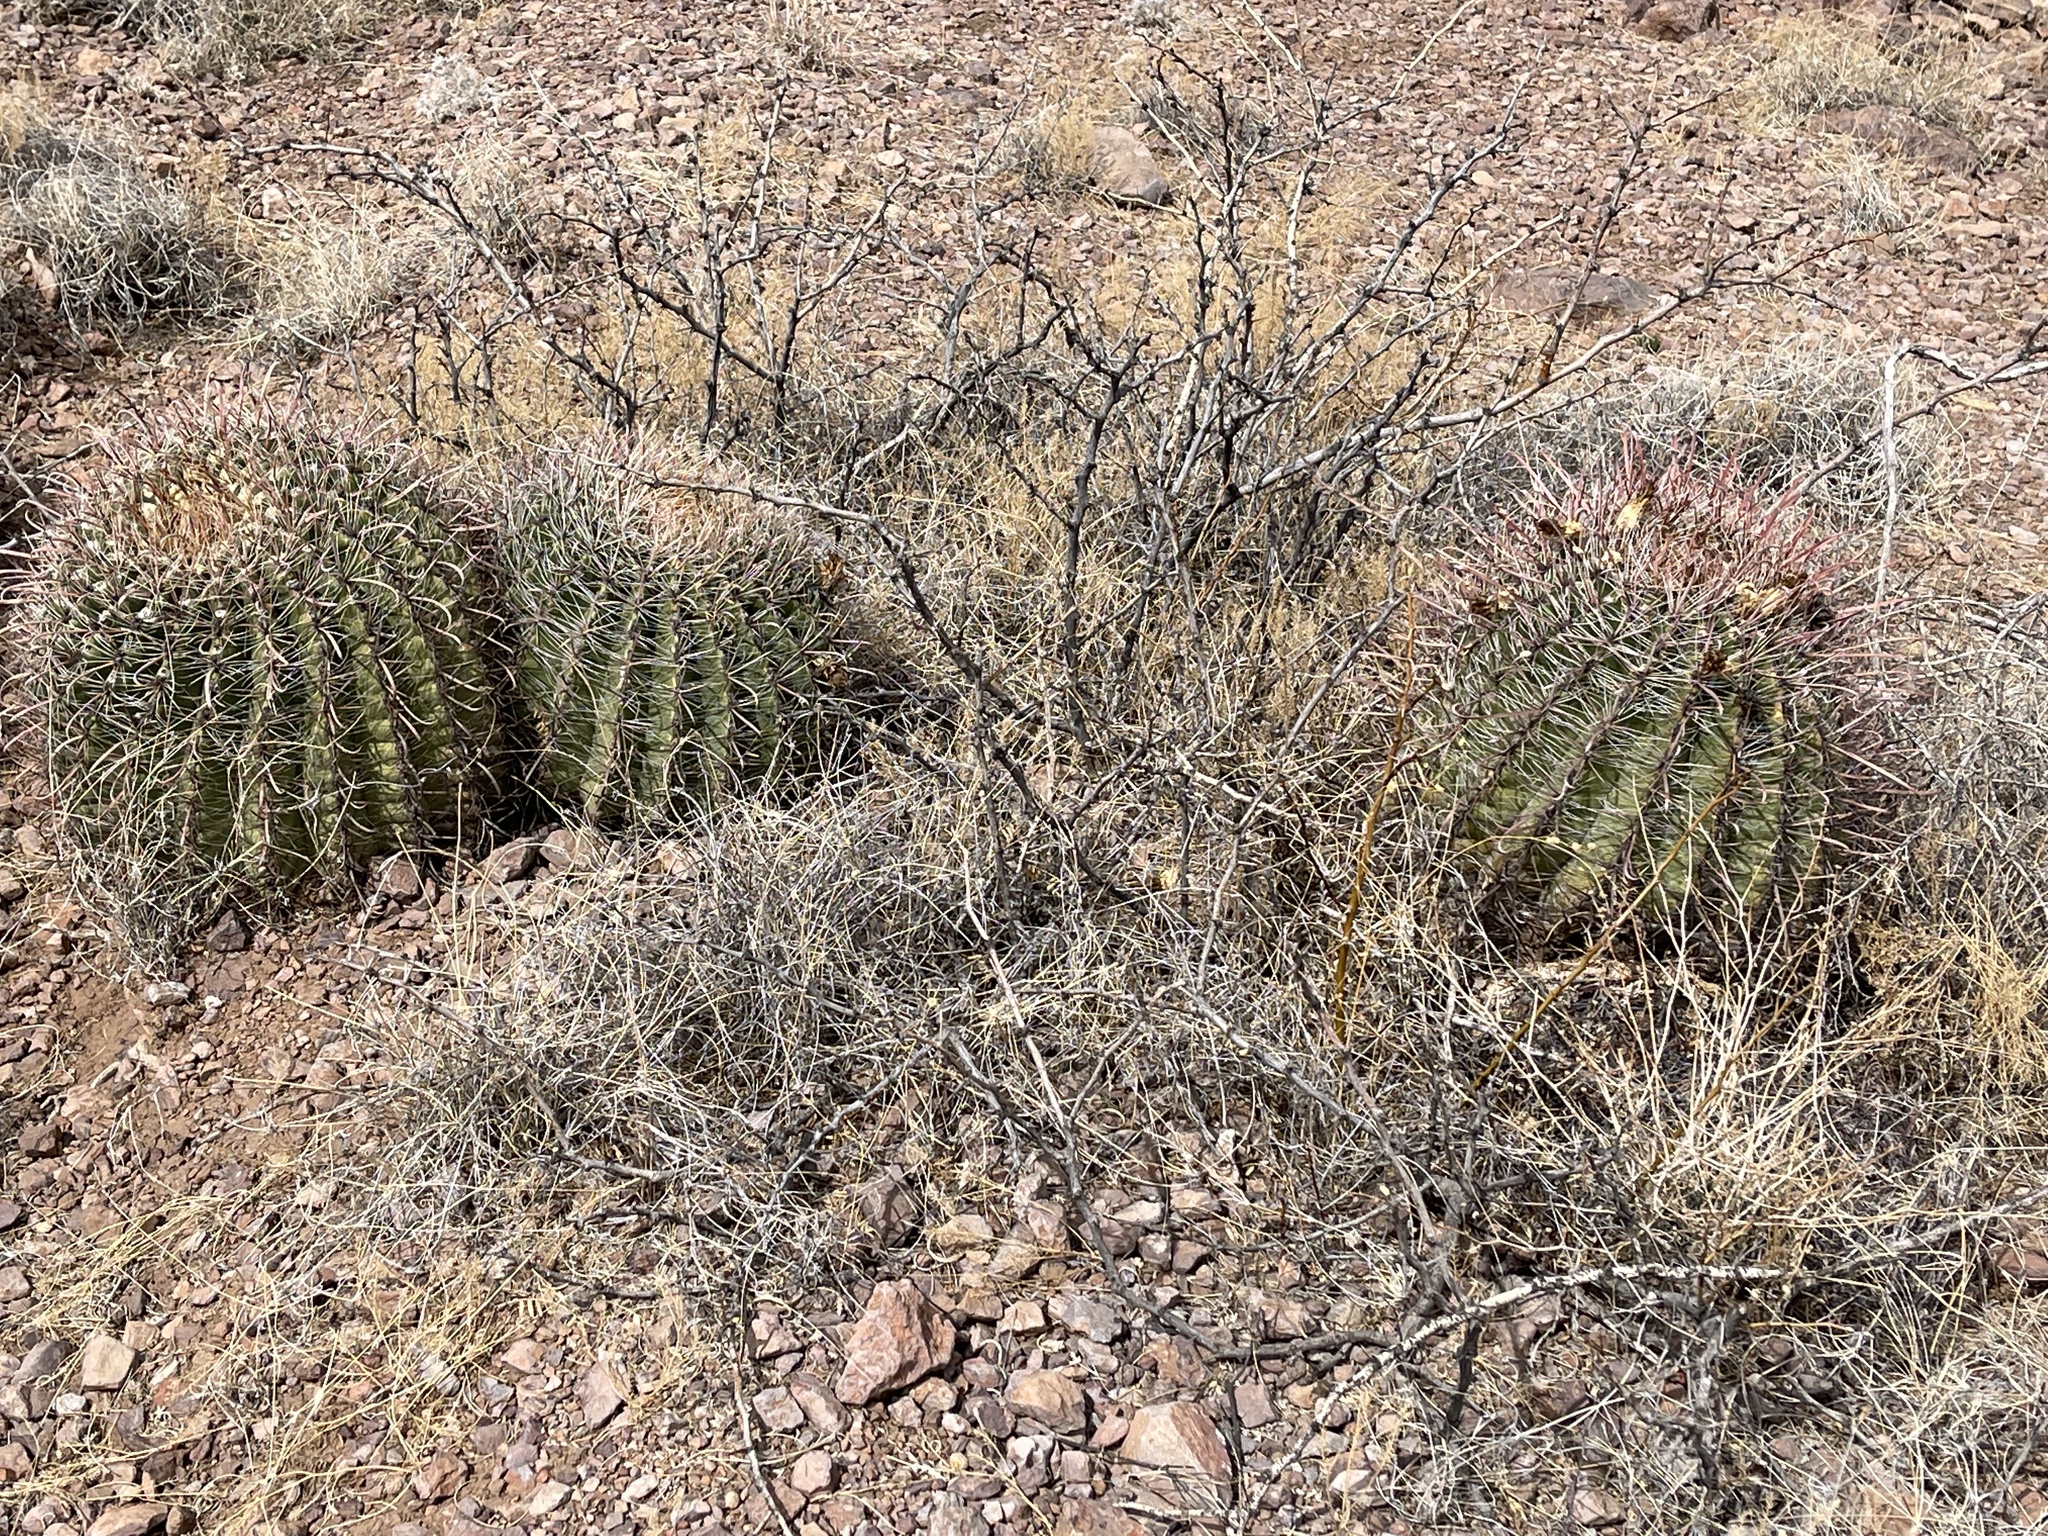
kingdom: Plantae
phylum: Tracheophyta
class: Magnoliopsida
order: Caryophyllales
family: Cactaceae
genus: Ferocactus
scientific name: Ferocactus wislizeni
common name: Candy barrel cactus
